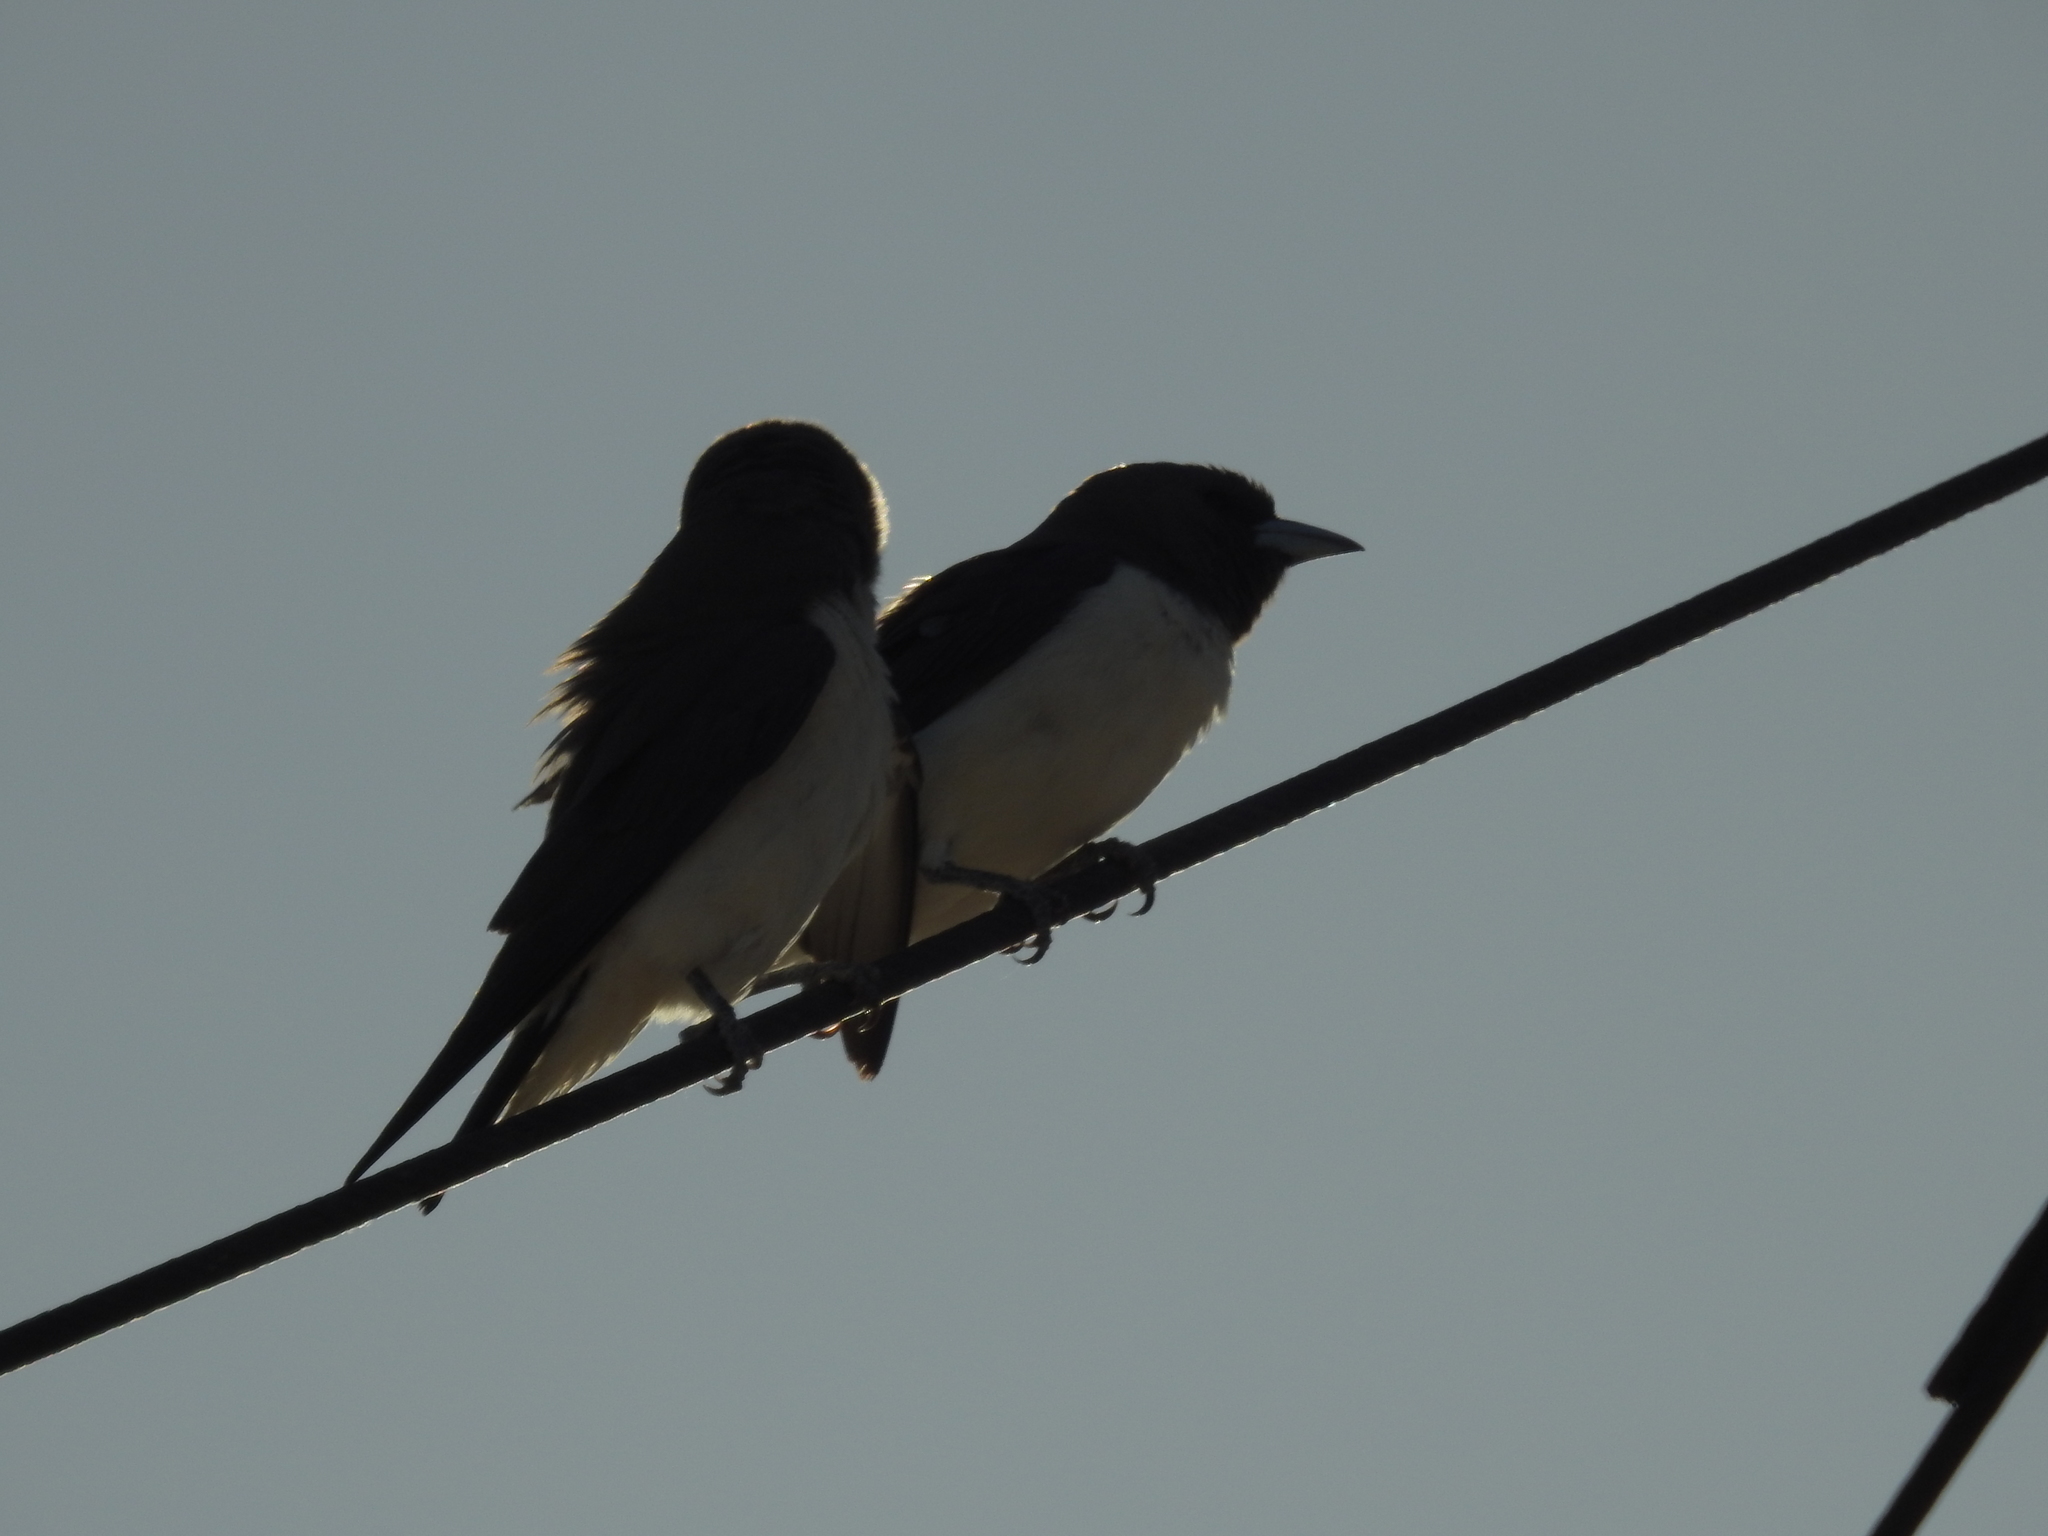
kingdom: Animalia
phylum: Chordata
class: Aves
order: Passeriformes
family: Artamidae
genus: Artamus
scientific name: Artamus leucoryn
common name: White-breasted woodswallow
